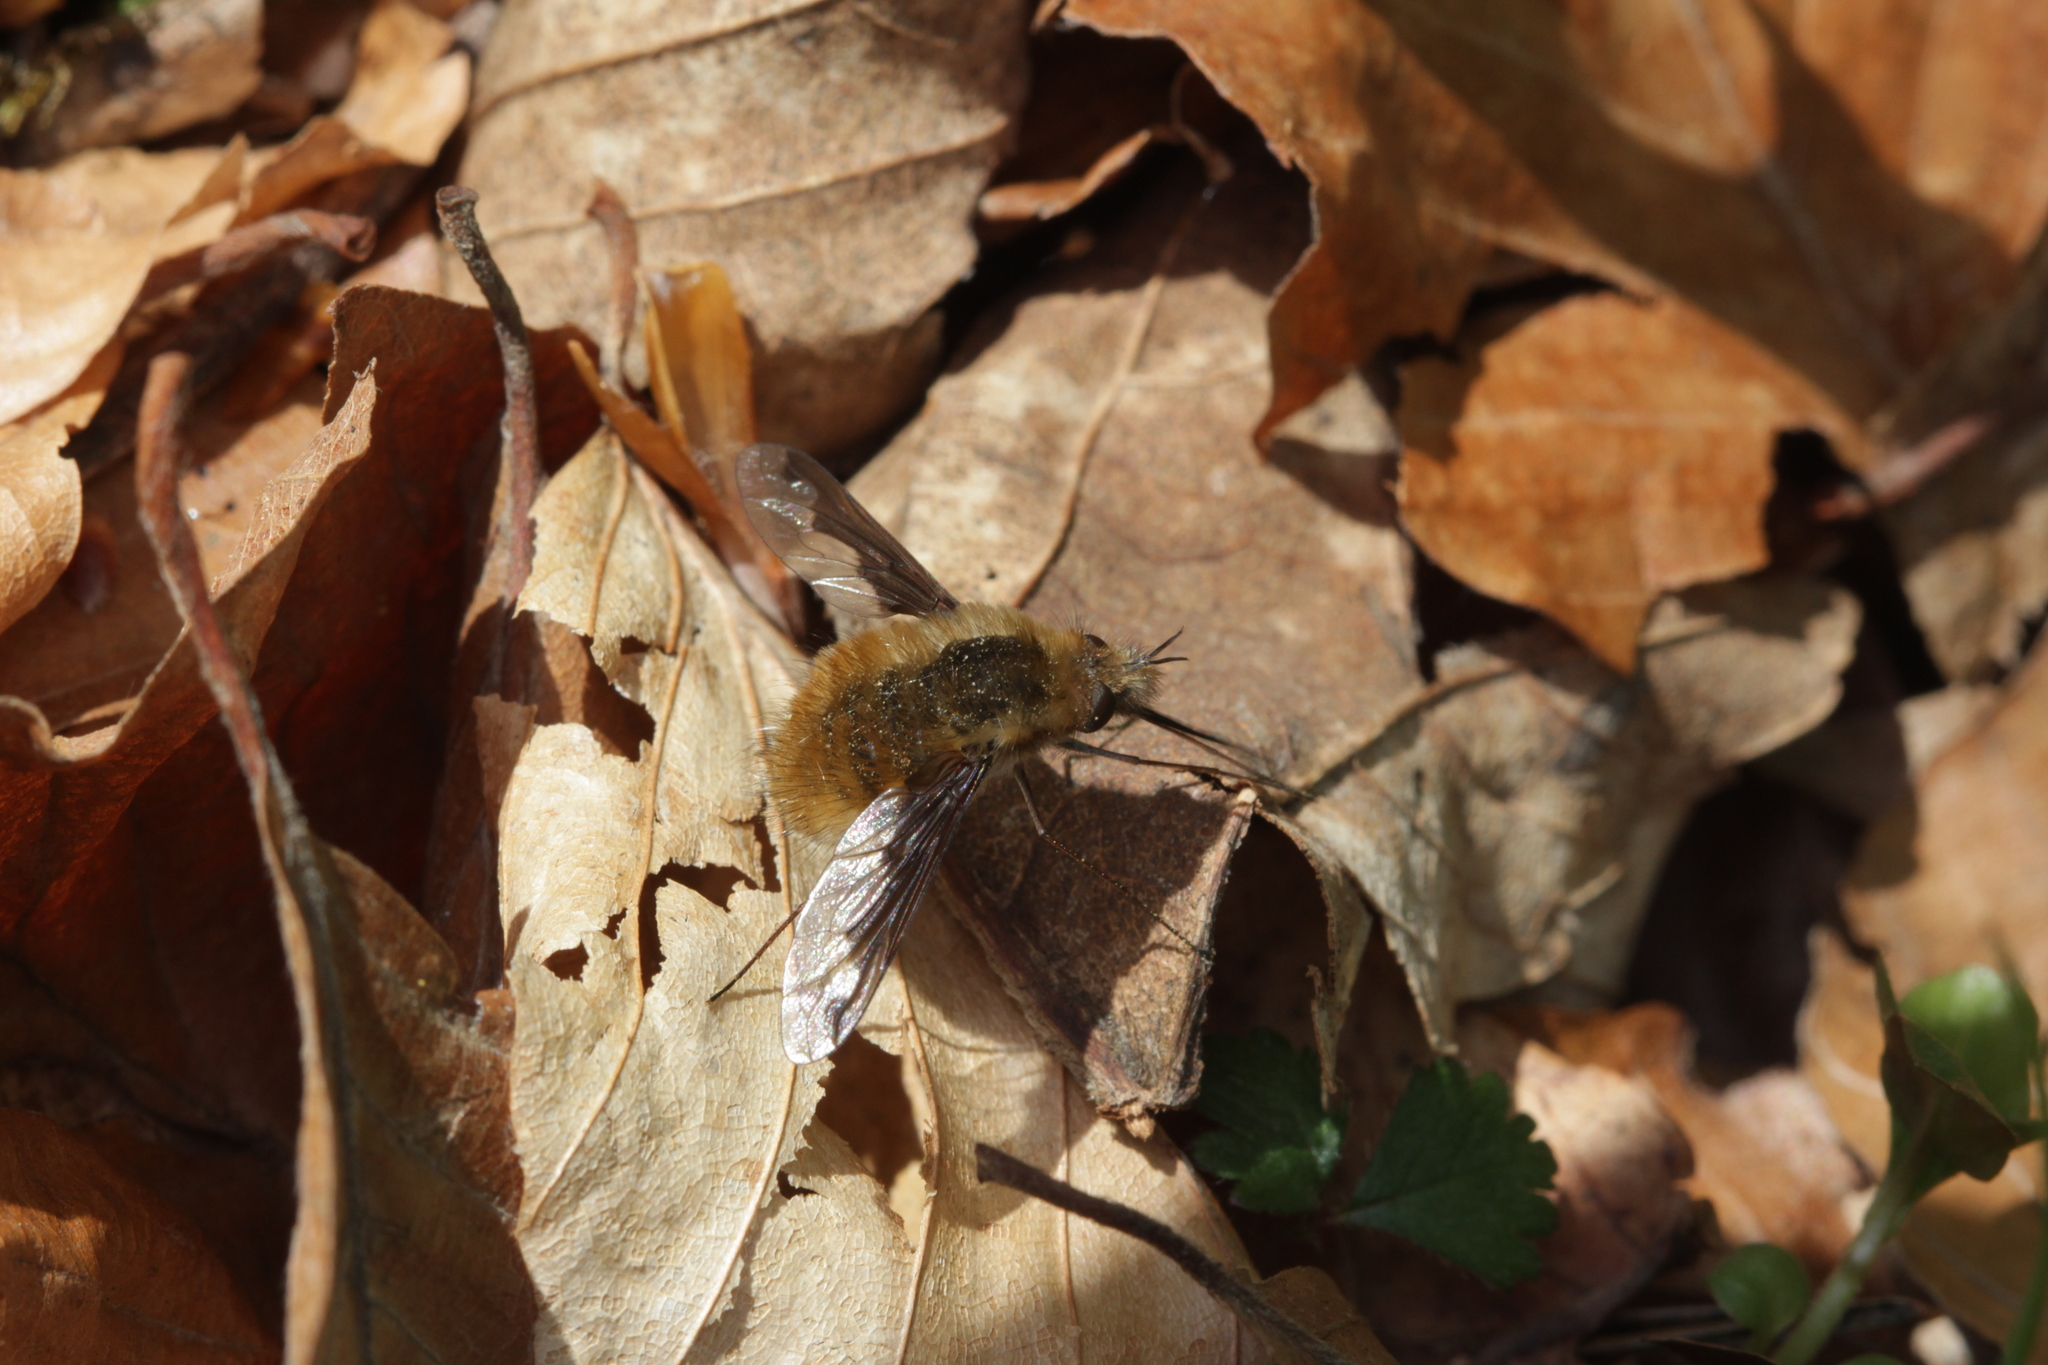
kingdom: Animalia
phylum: Arthropoda
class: Insecta
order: Diptera
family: Bombyliidae
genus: Bombylius
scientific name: Bombylius major
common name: Bee fly
